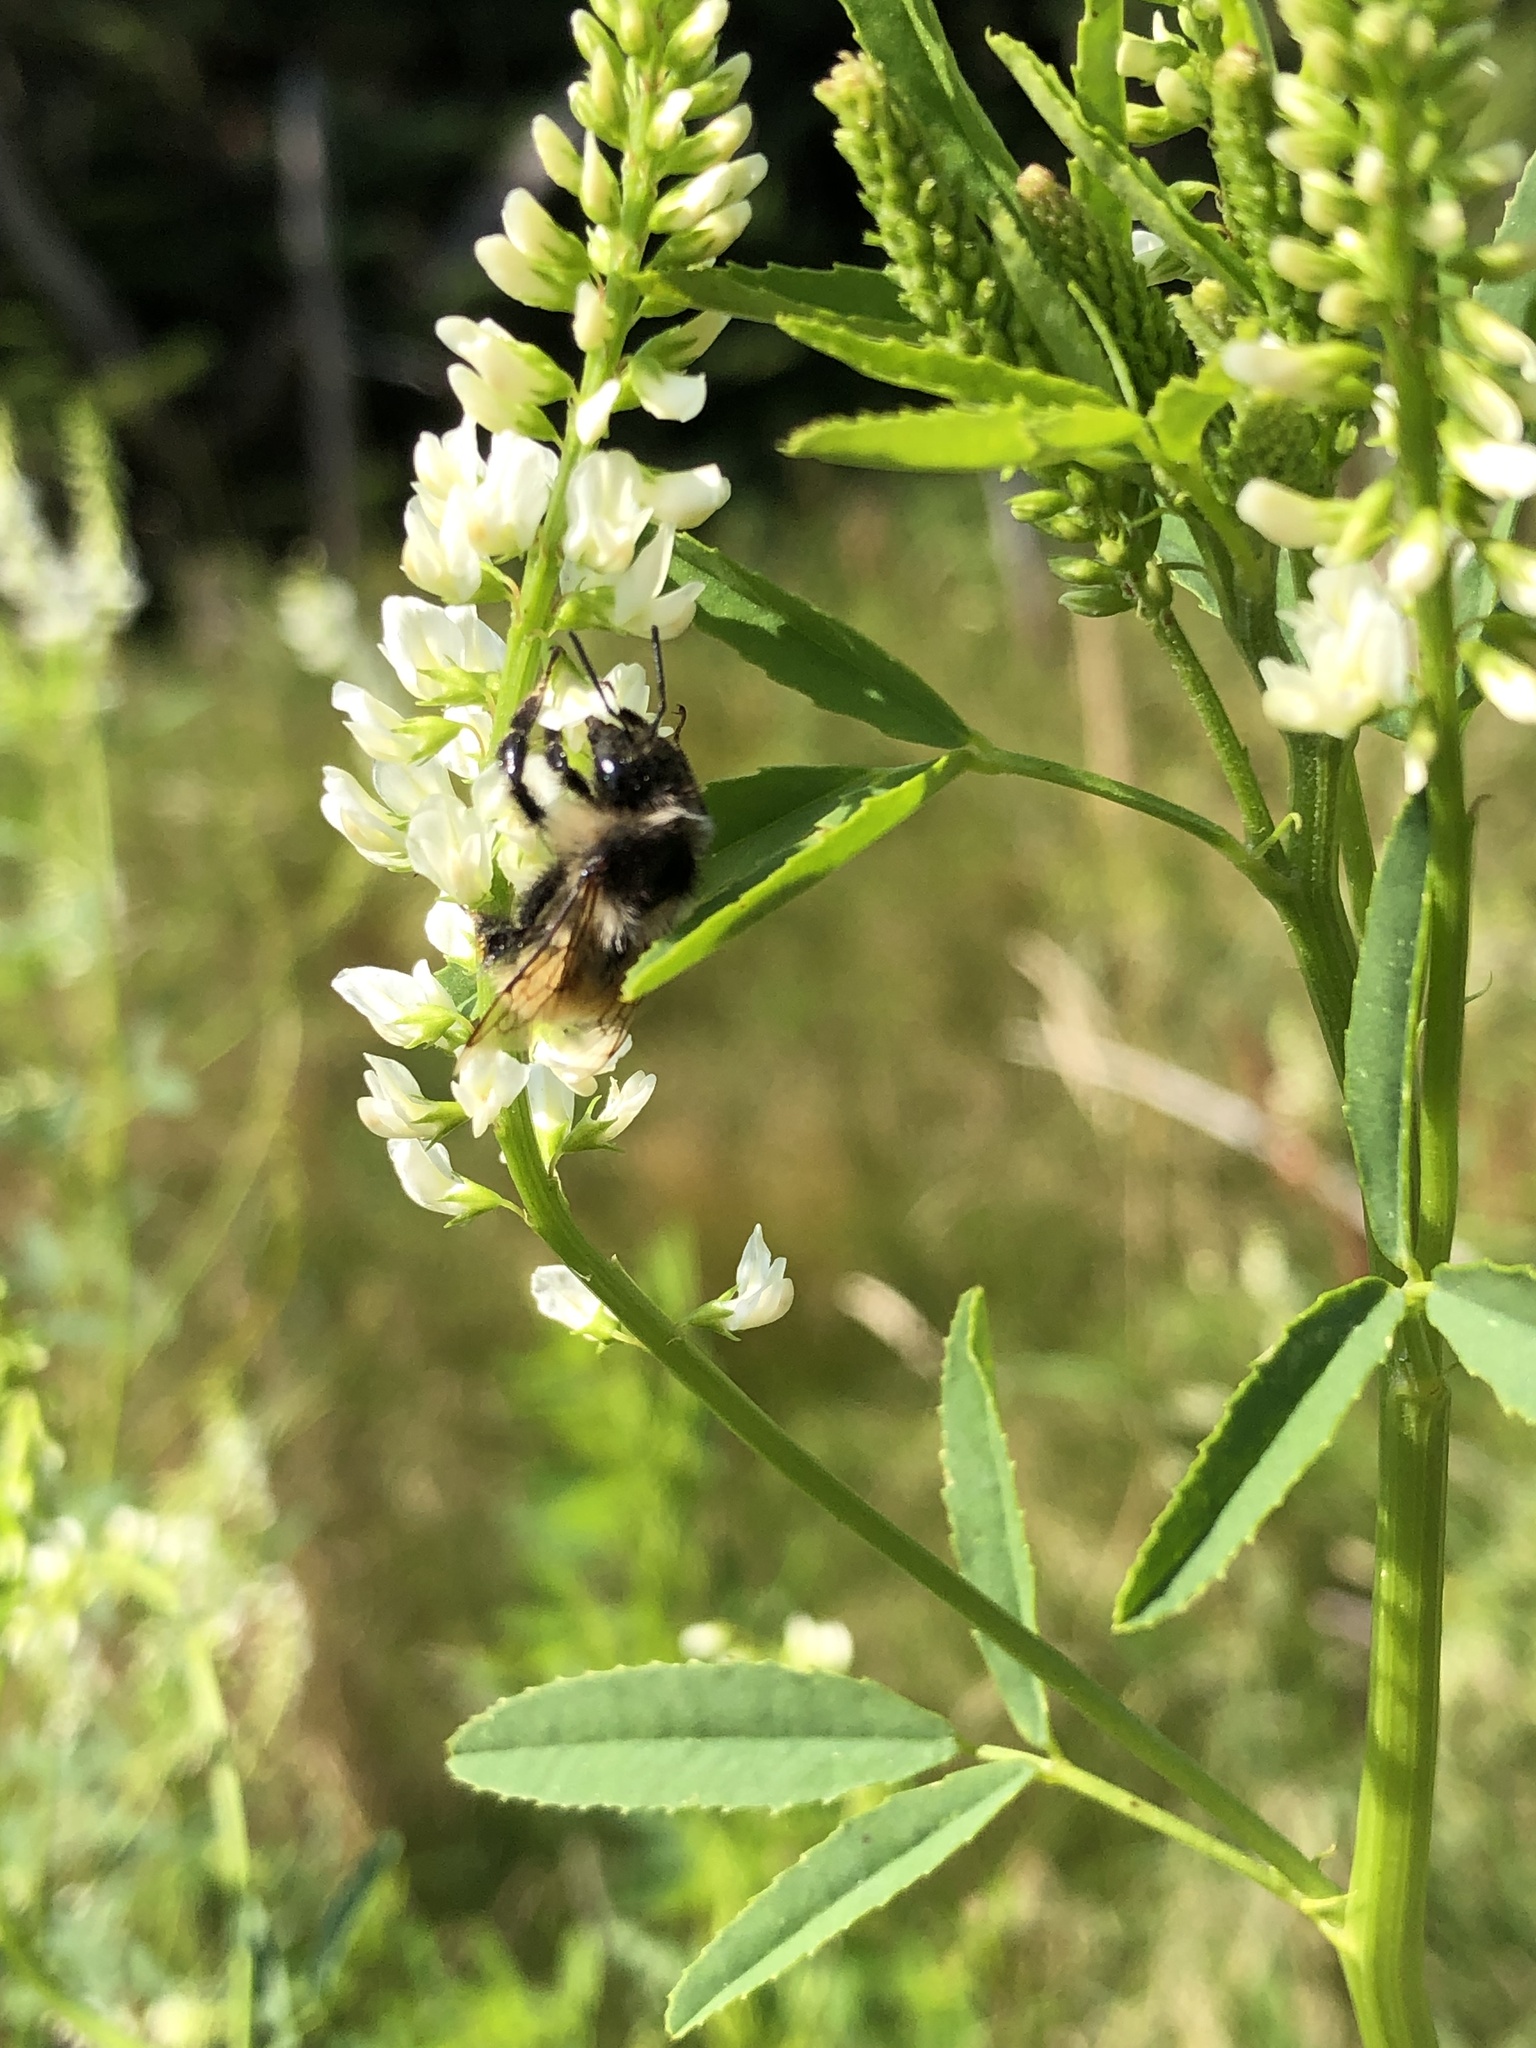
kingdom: Animalia
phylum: Arthropoda
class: Insecta
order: Hymenoptera
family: Apidae
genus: Bombus
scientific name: Bombus ternarius
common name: Tri-colored bumble bee
